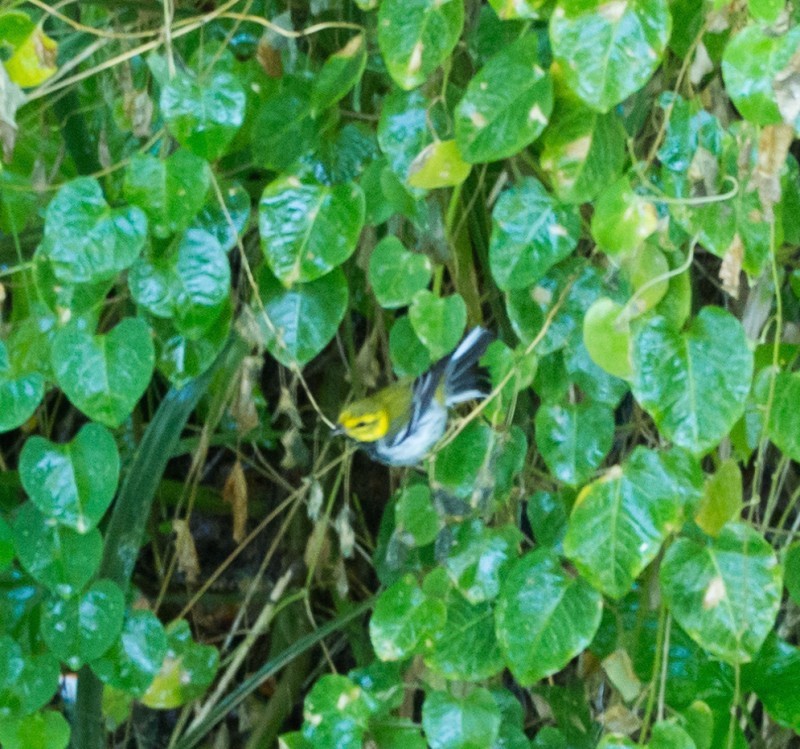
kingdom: Animalia
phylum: Chordata
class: Aves
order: Passeriformes
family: Parulidae
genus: Setophaga
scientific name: Setophaga virens
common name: Black-throated green warbler
